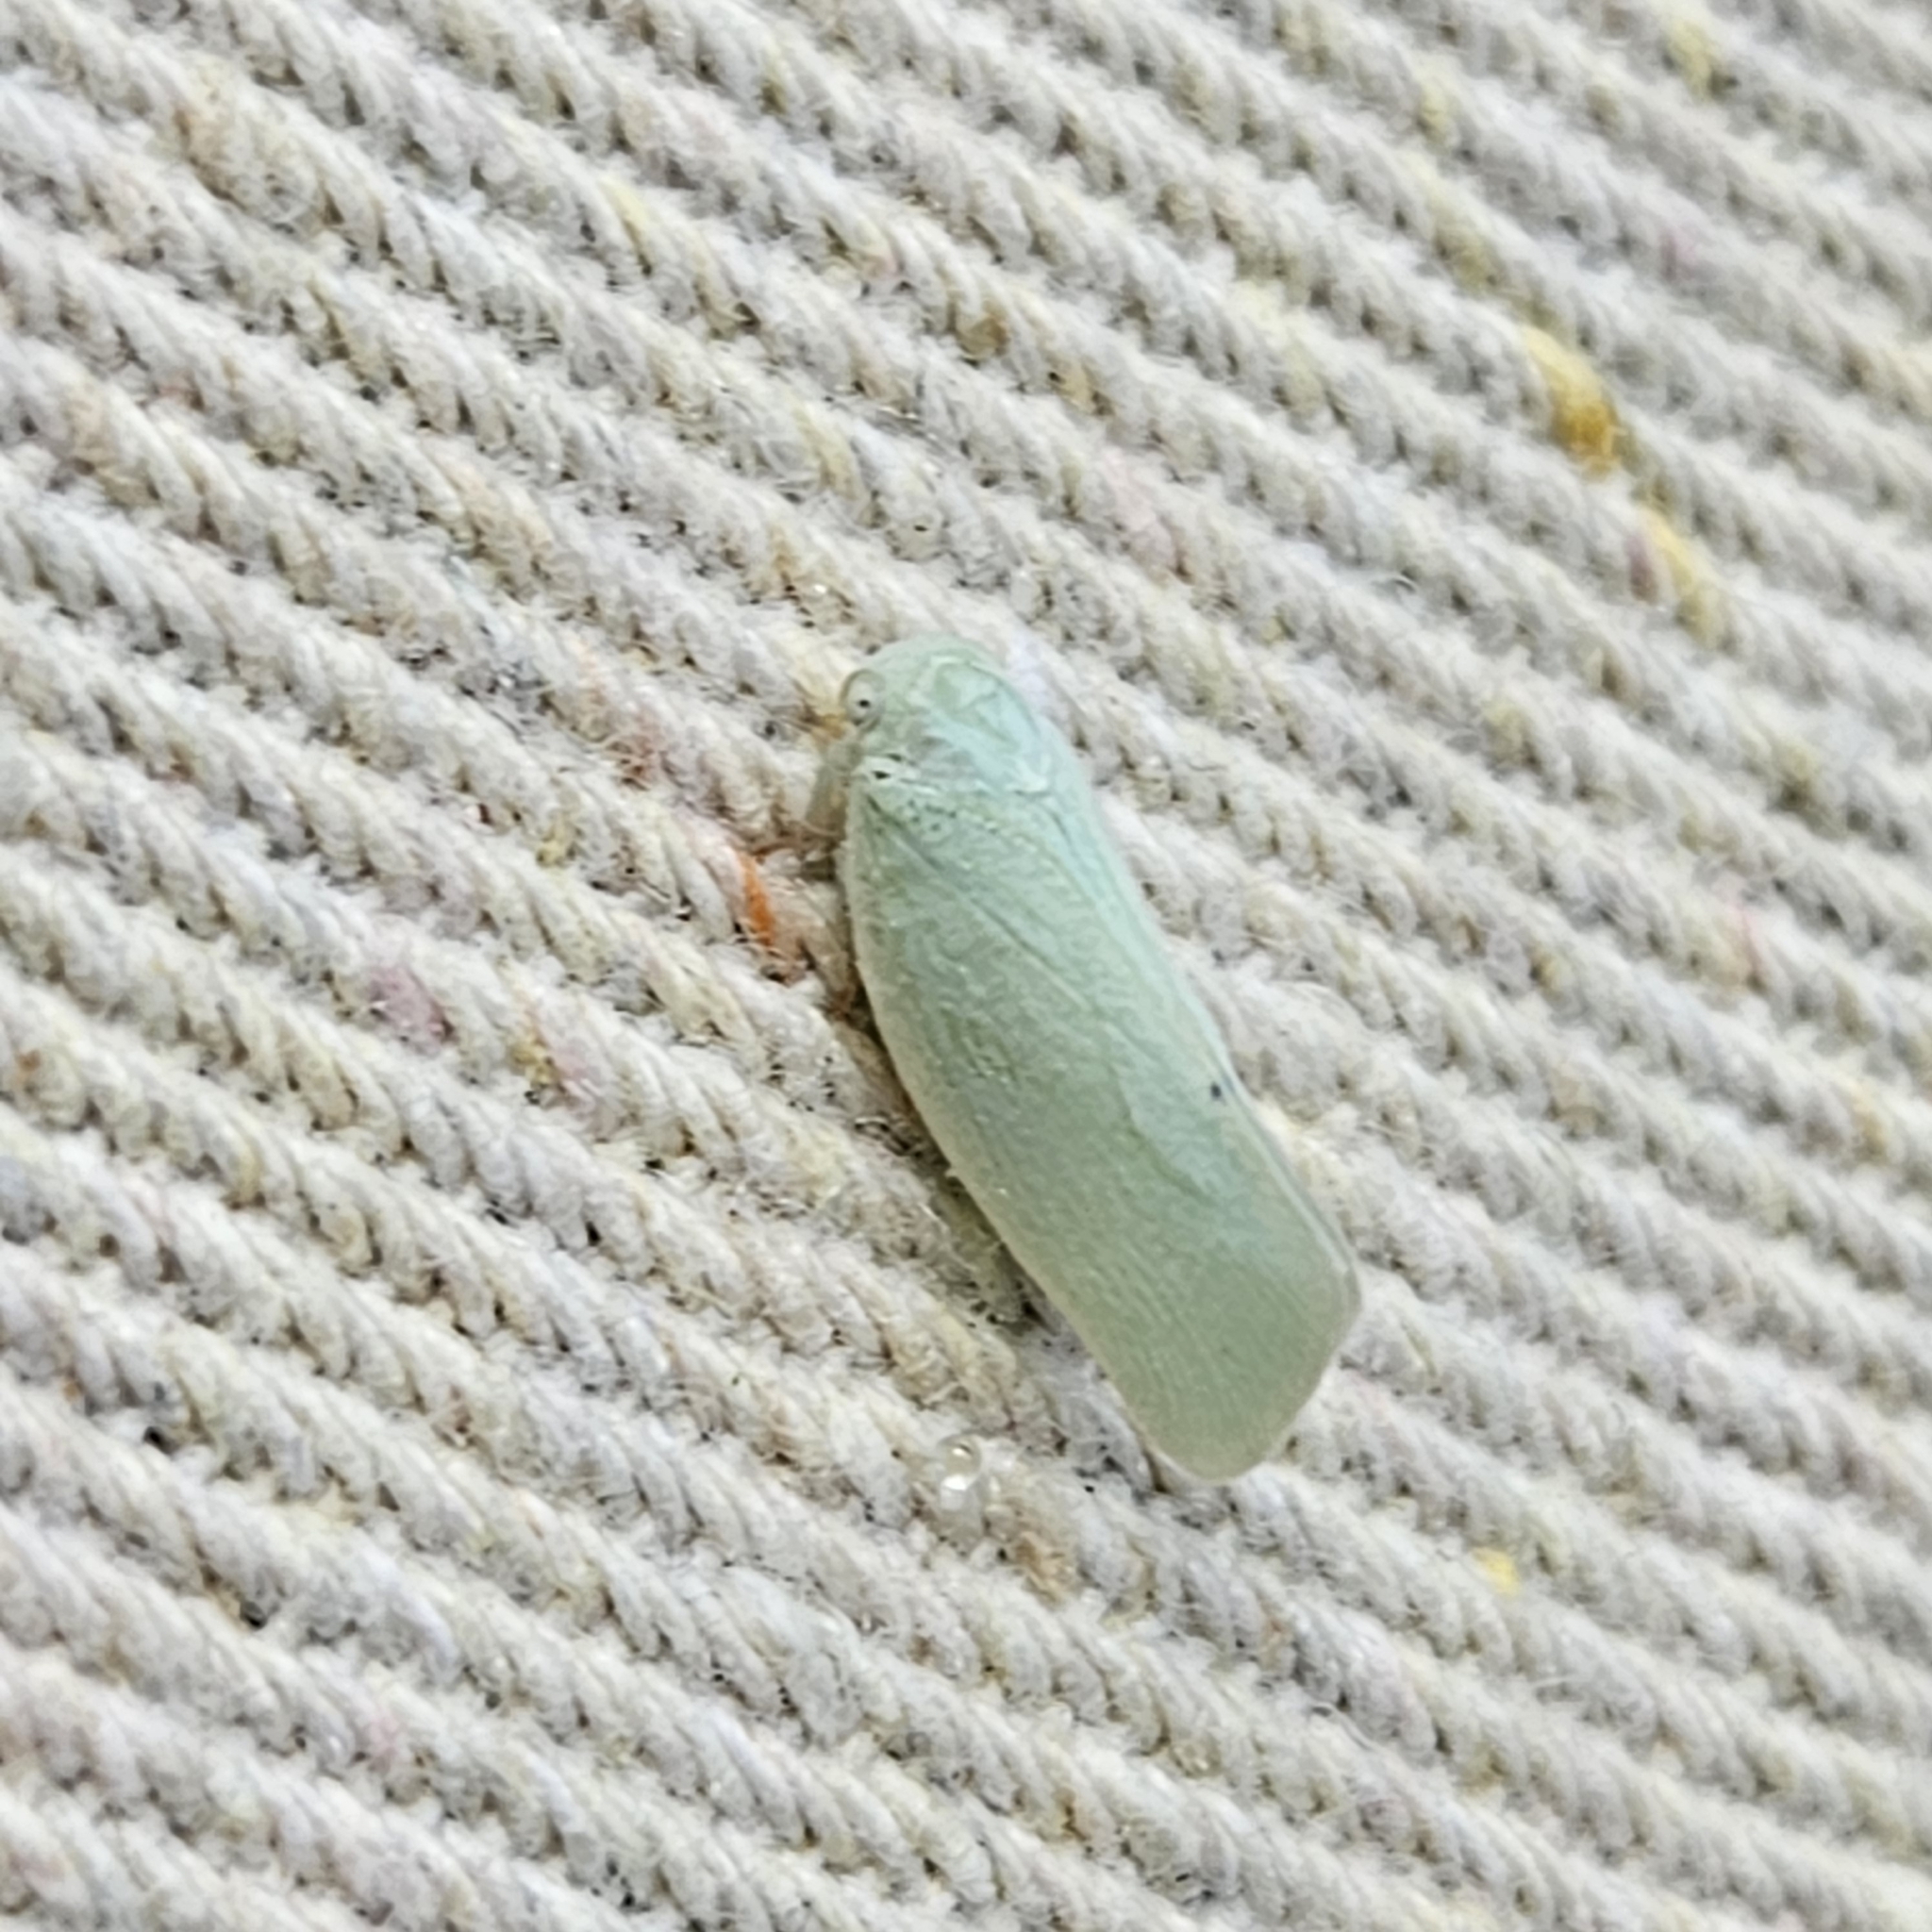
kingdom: Animalia
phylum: Arthropoda
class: Insecta
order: Hemiptera
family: Flatidae
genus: Flatormenis
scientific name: Flatormenis proxima
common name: Northern flatid planthopper
